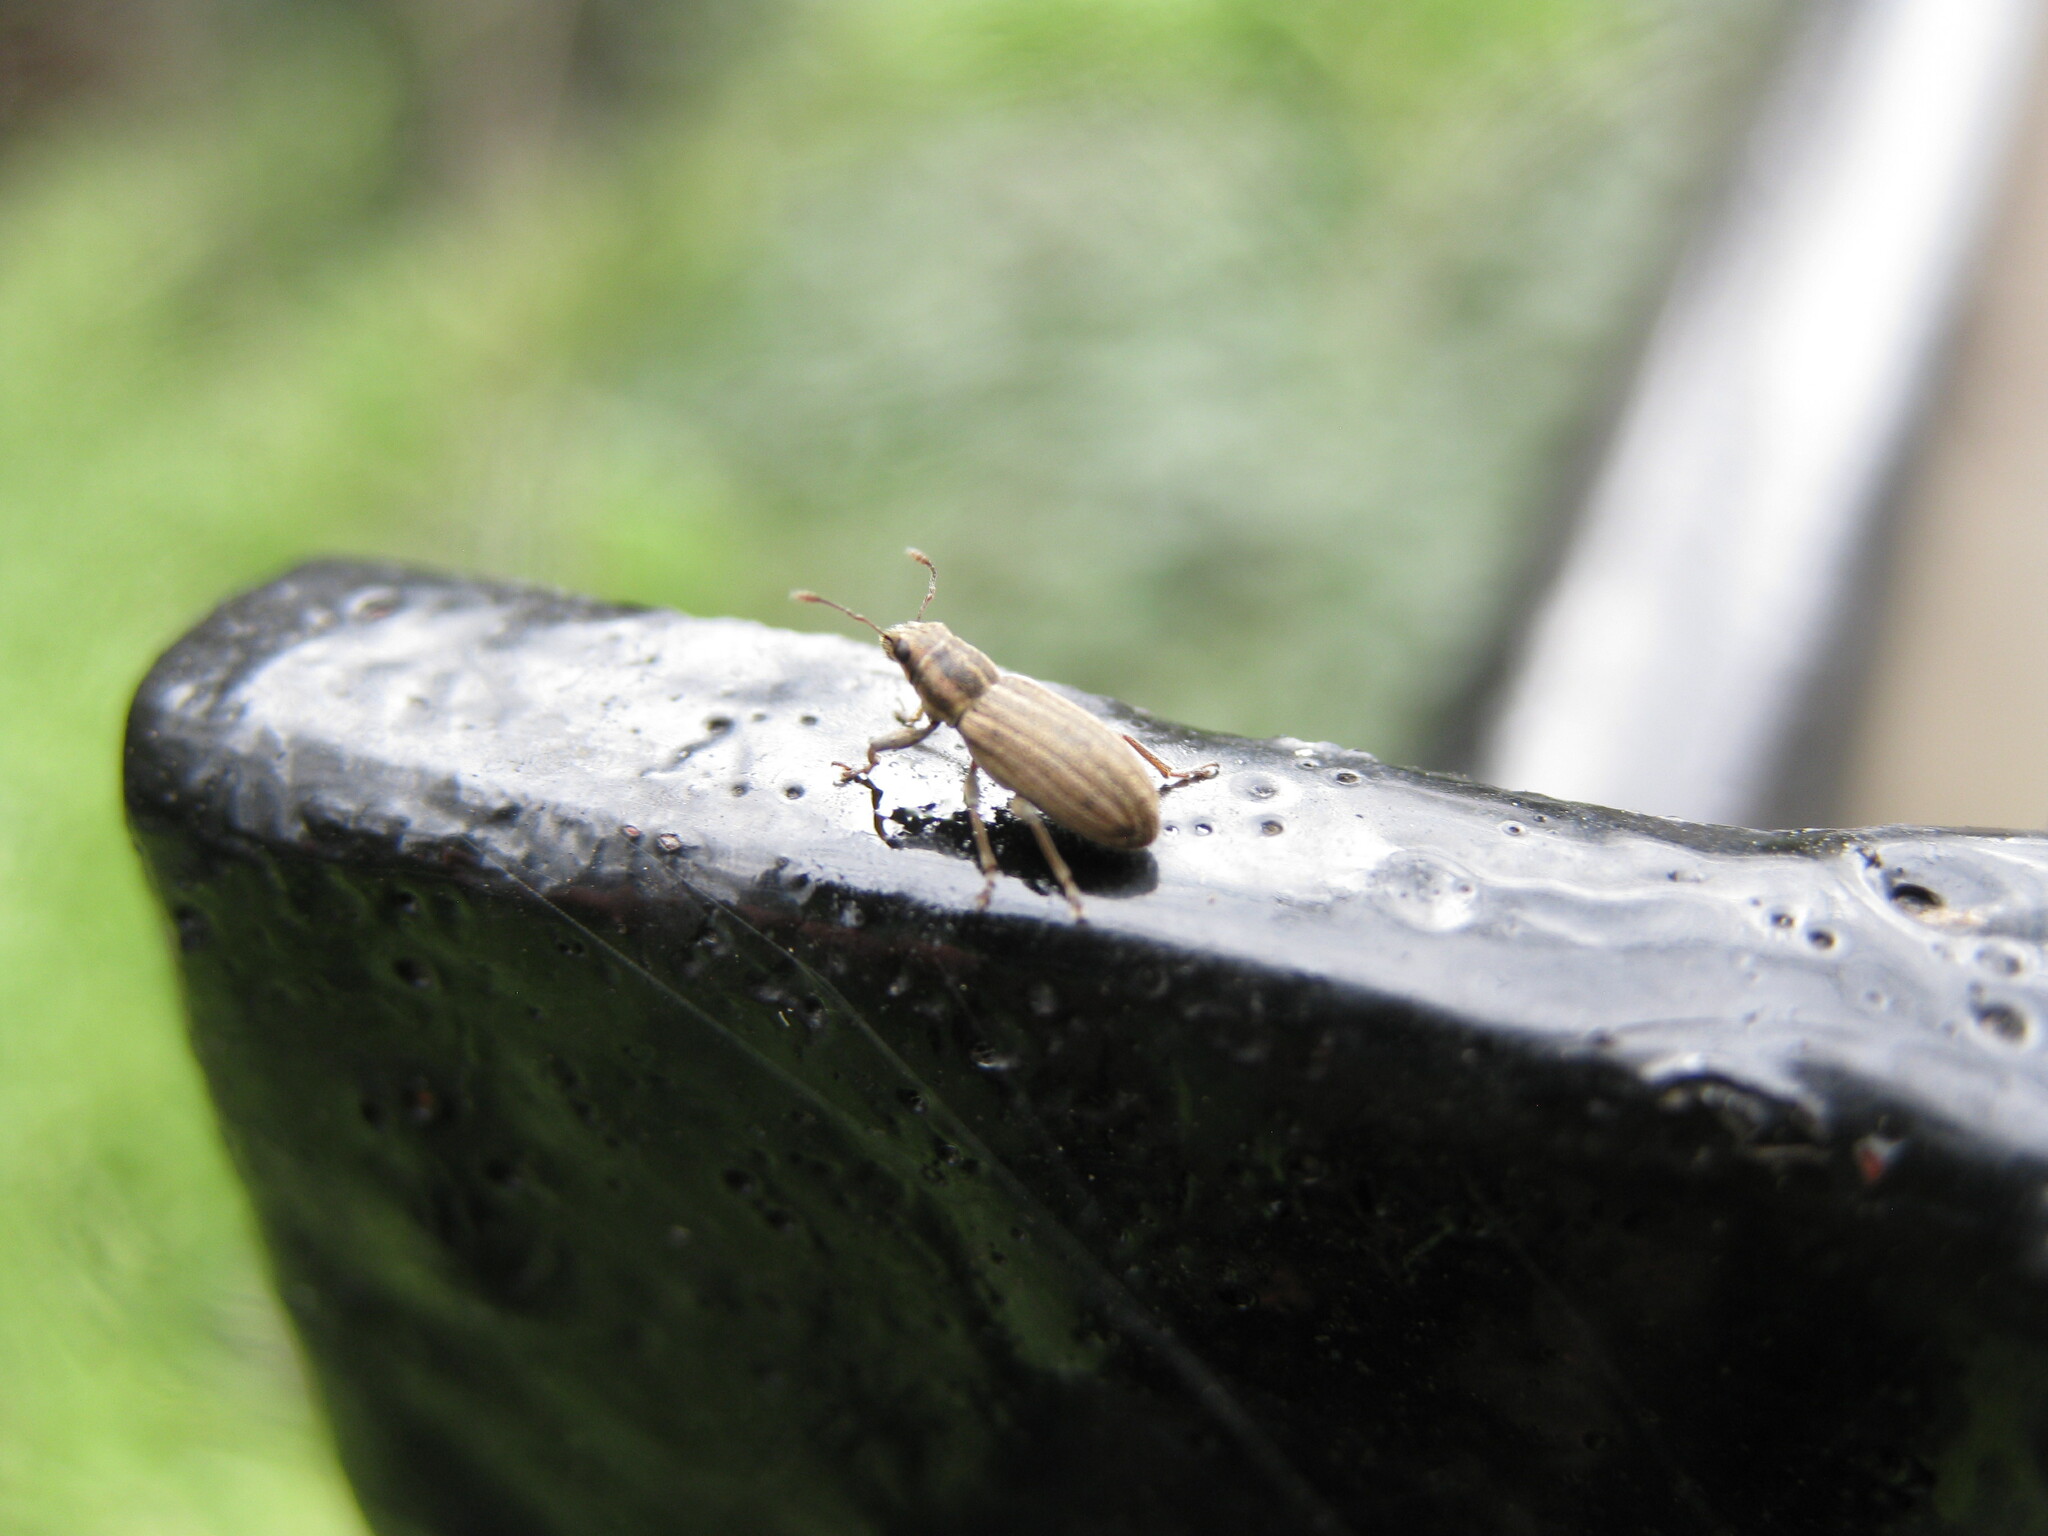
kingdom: Animalia
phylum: Arthropoda
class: Insecta
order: Coleoptera
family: Curculionidae
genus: Sitona
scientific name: Sitona lineatus
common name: Weevil
